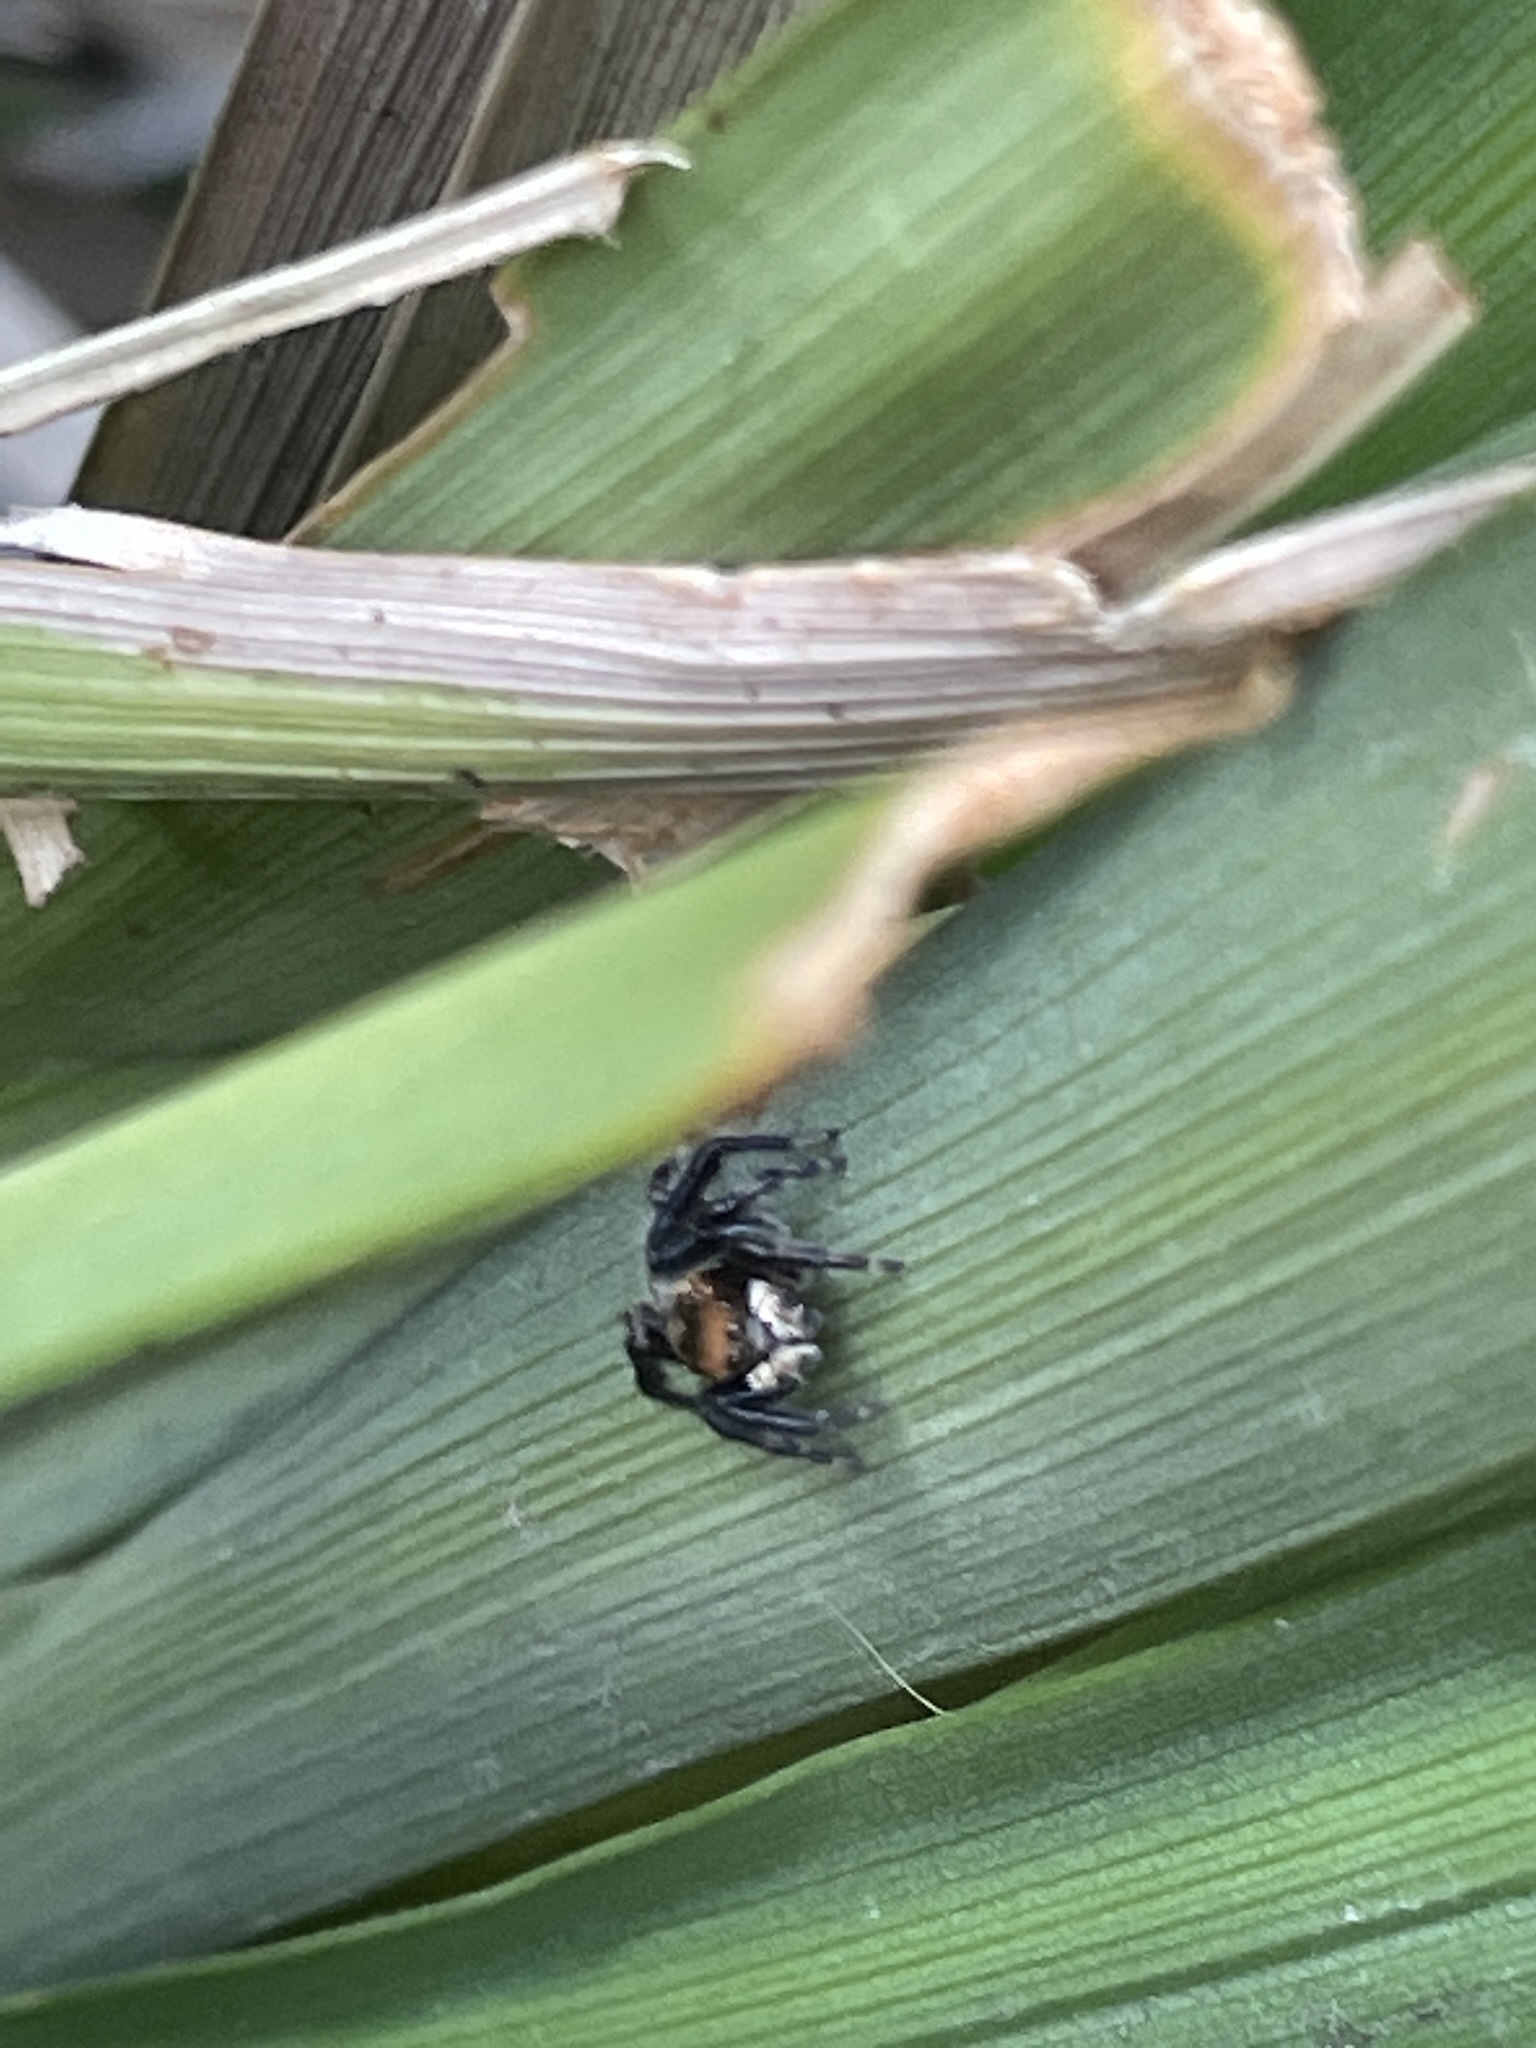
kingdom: Animalia
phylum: Arthropoda
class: Arachnida
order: Araneae
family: Salticidae
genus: Maratus
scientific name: Maratus griseus
